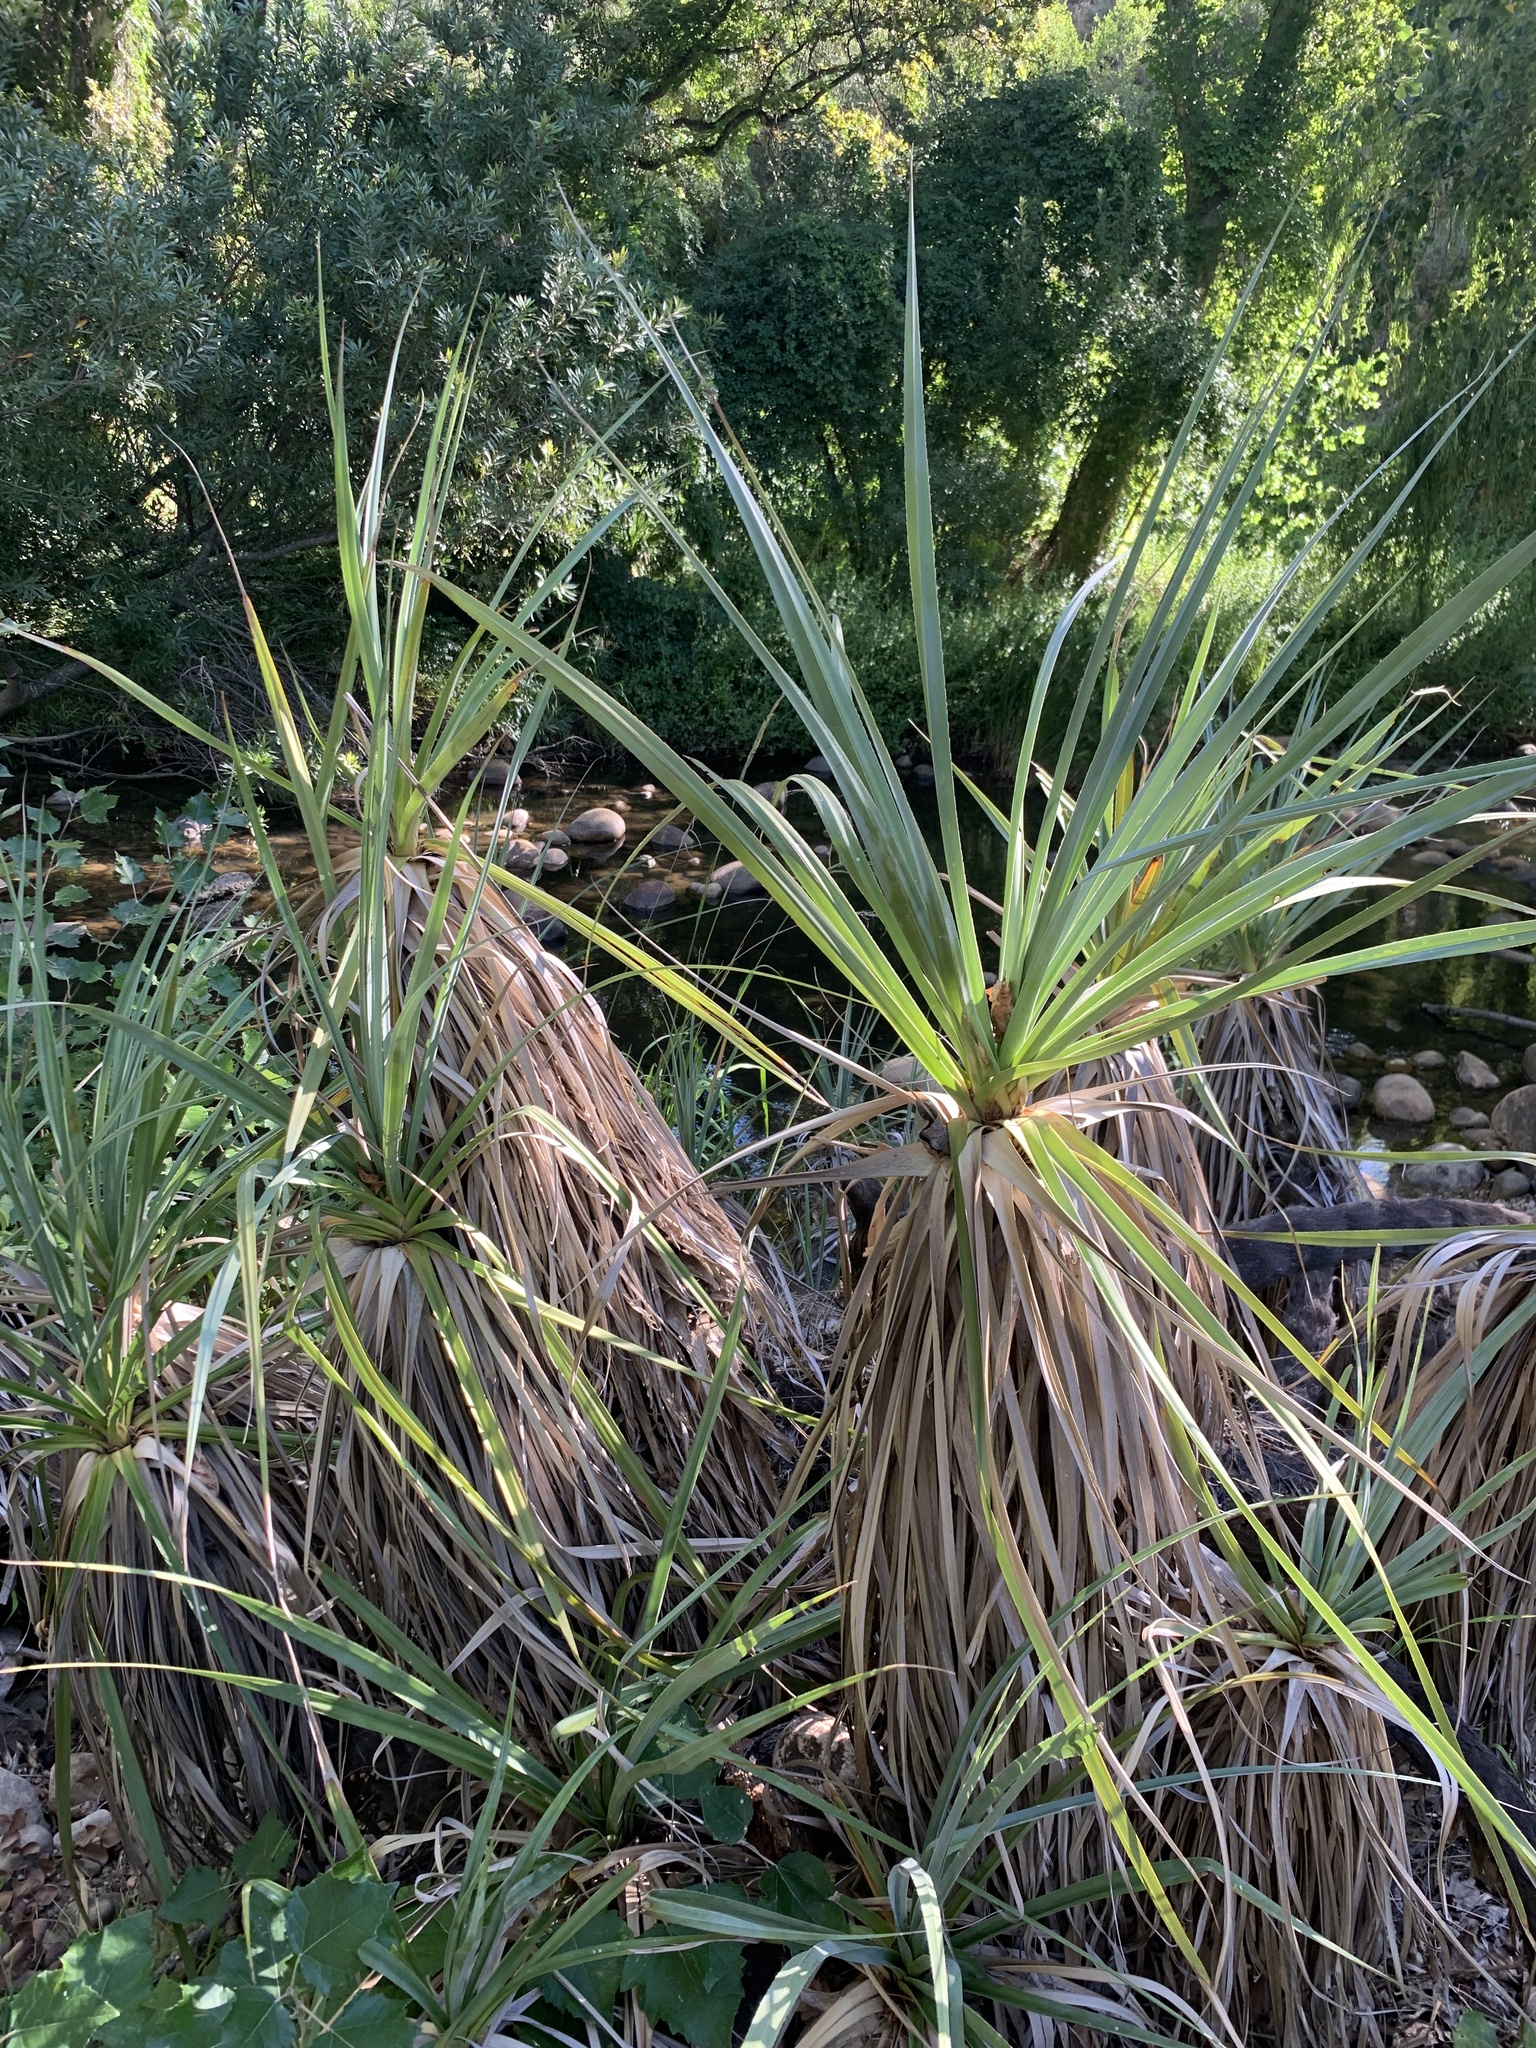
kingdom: Plantae
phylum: Tracheophyta
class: Liliopsida
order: Poales
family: Thurniaceae
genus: Prionium
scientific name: Prionium serratum
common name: Palmiet
